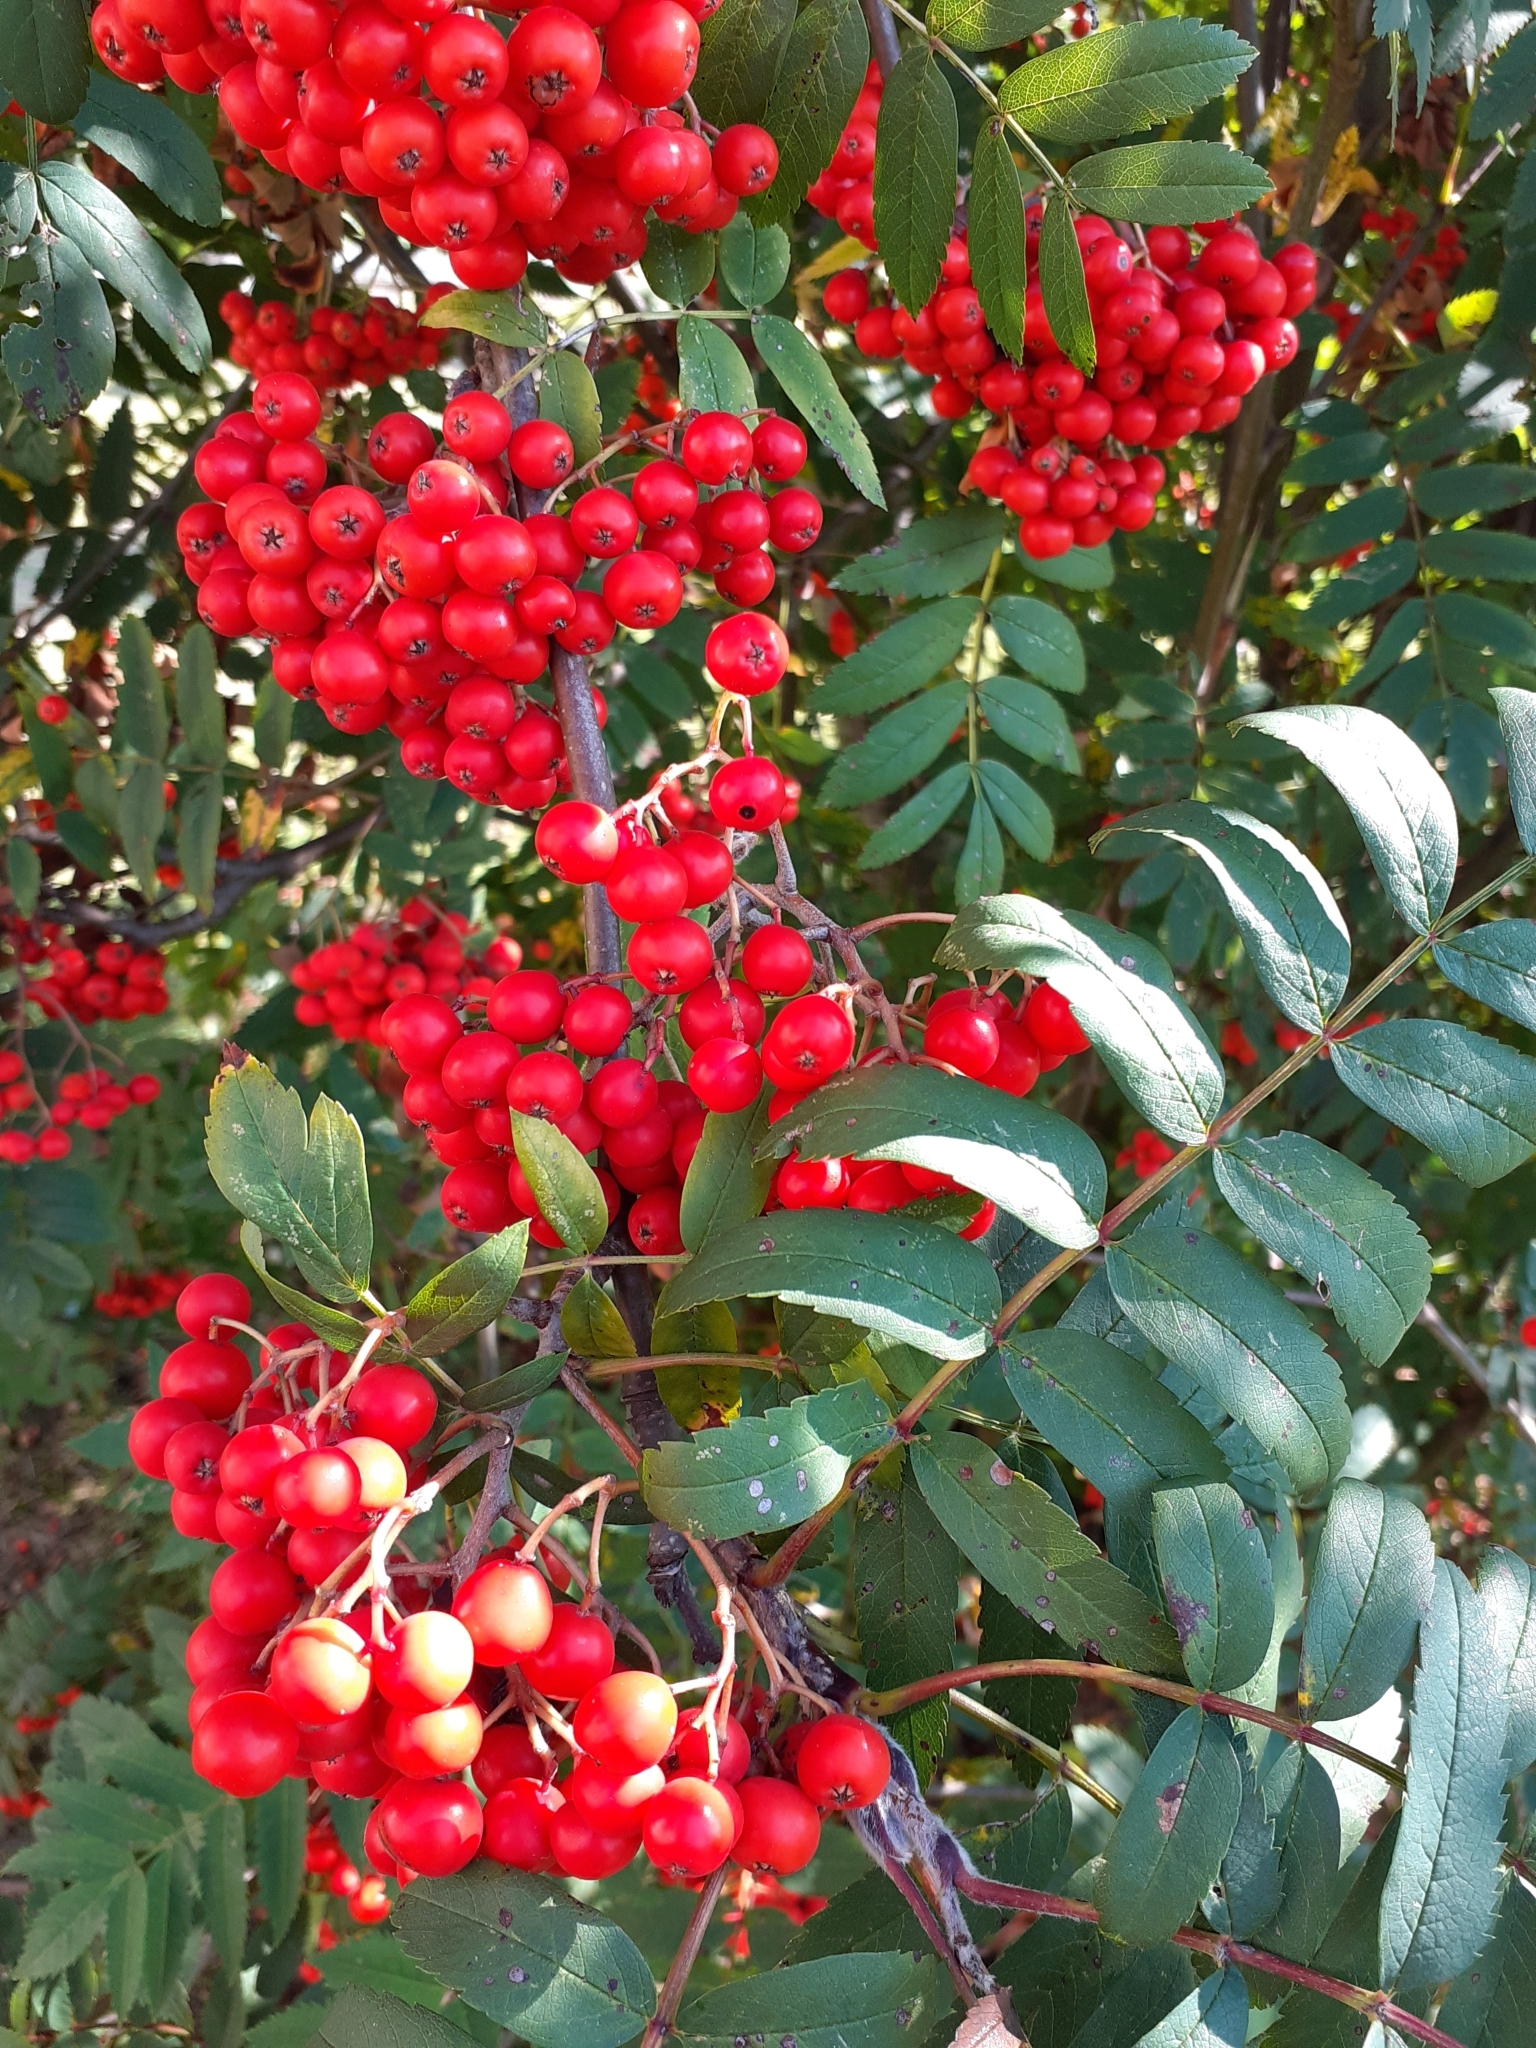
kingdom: Plantae
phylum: Tracheophyta
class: Magnoliopsida
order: Rosales
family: Rosaceae
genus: Sorbus
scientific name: Sorbus aucuparia
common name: Rowan
